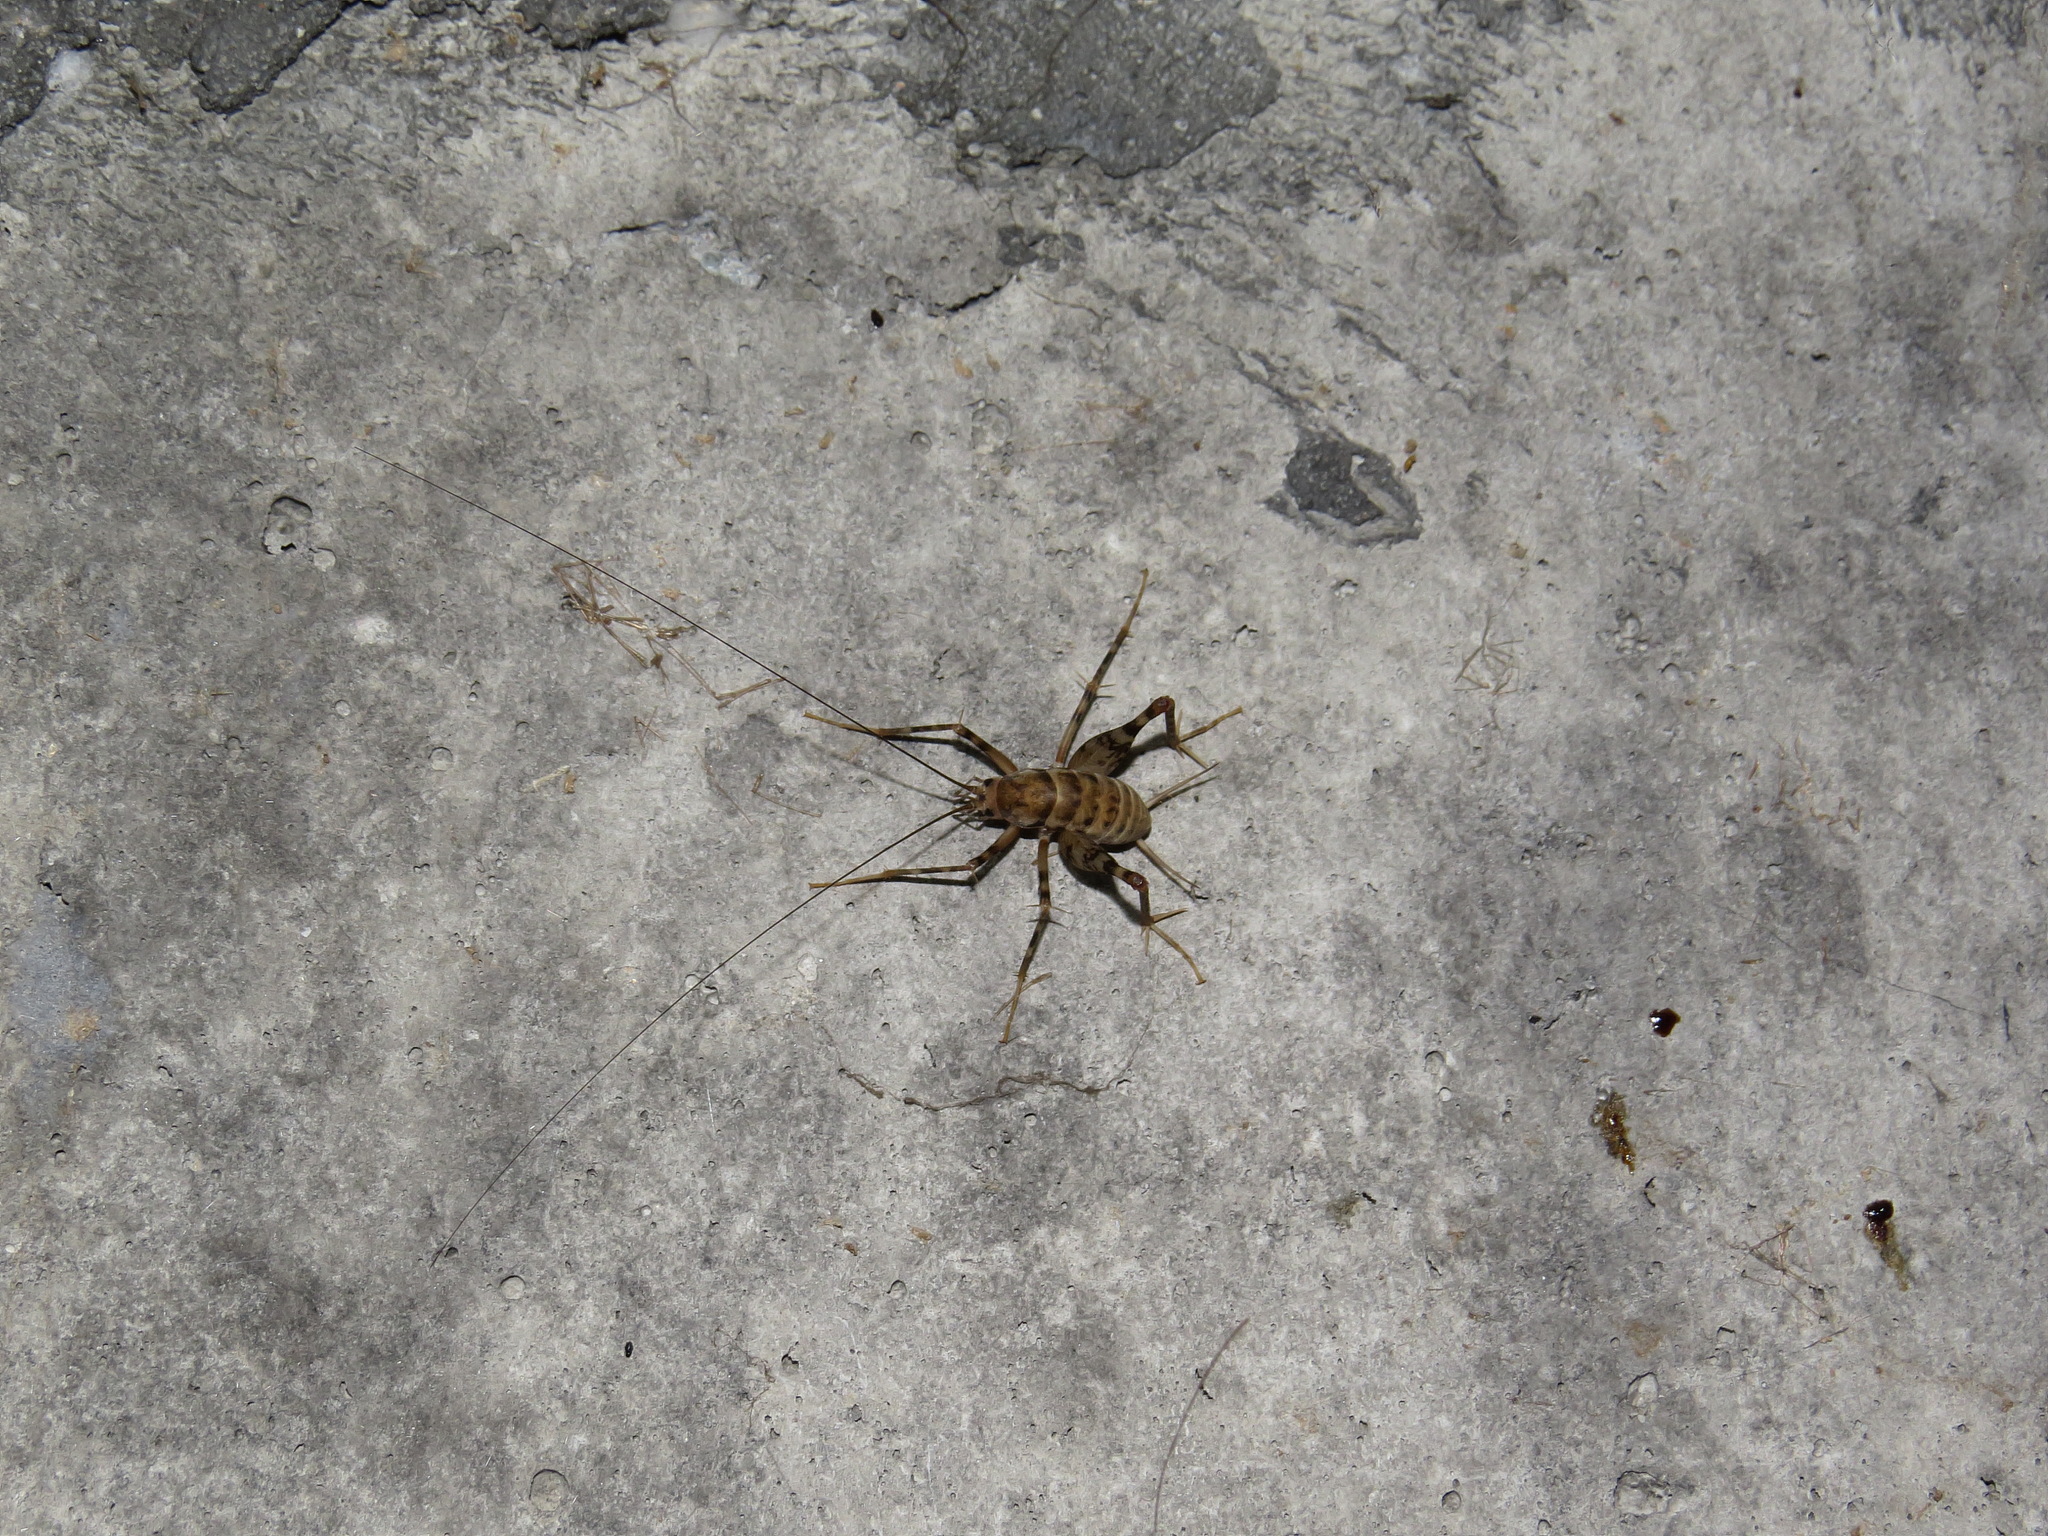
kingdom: Animalia
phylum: Arthropoda
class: Insecta
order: Orthoptera
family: Rhaphidophoridae
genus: Tachycines
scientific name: Tachycines asynamorus
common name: Greenhouse camel cricket
